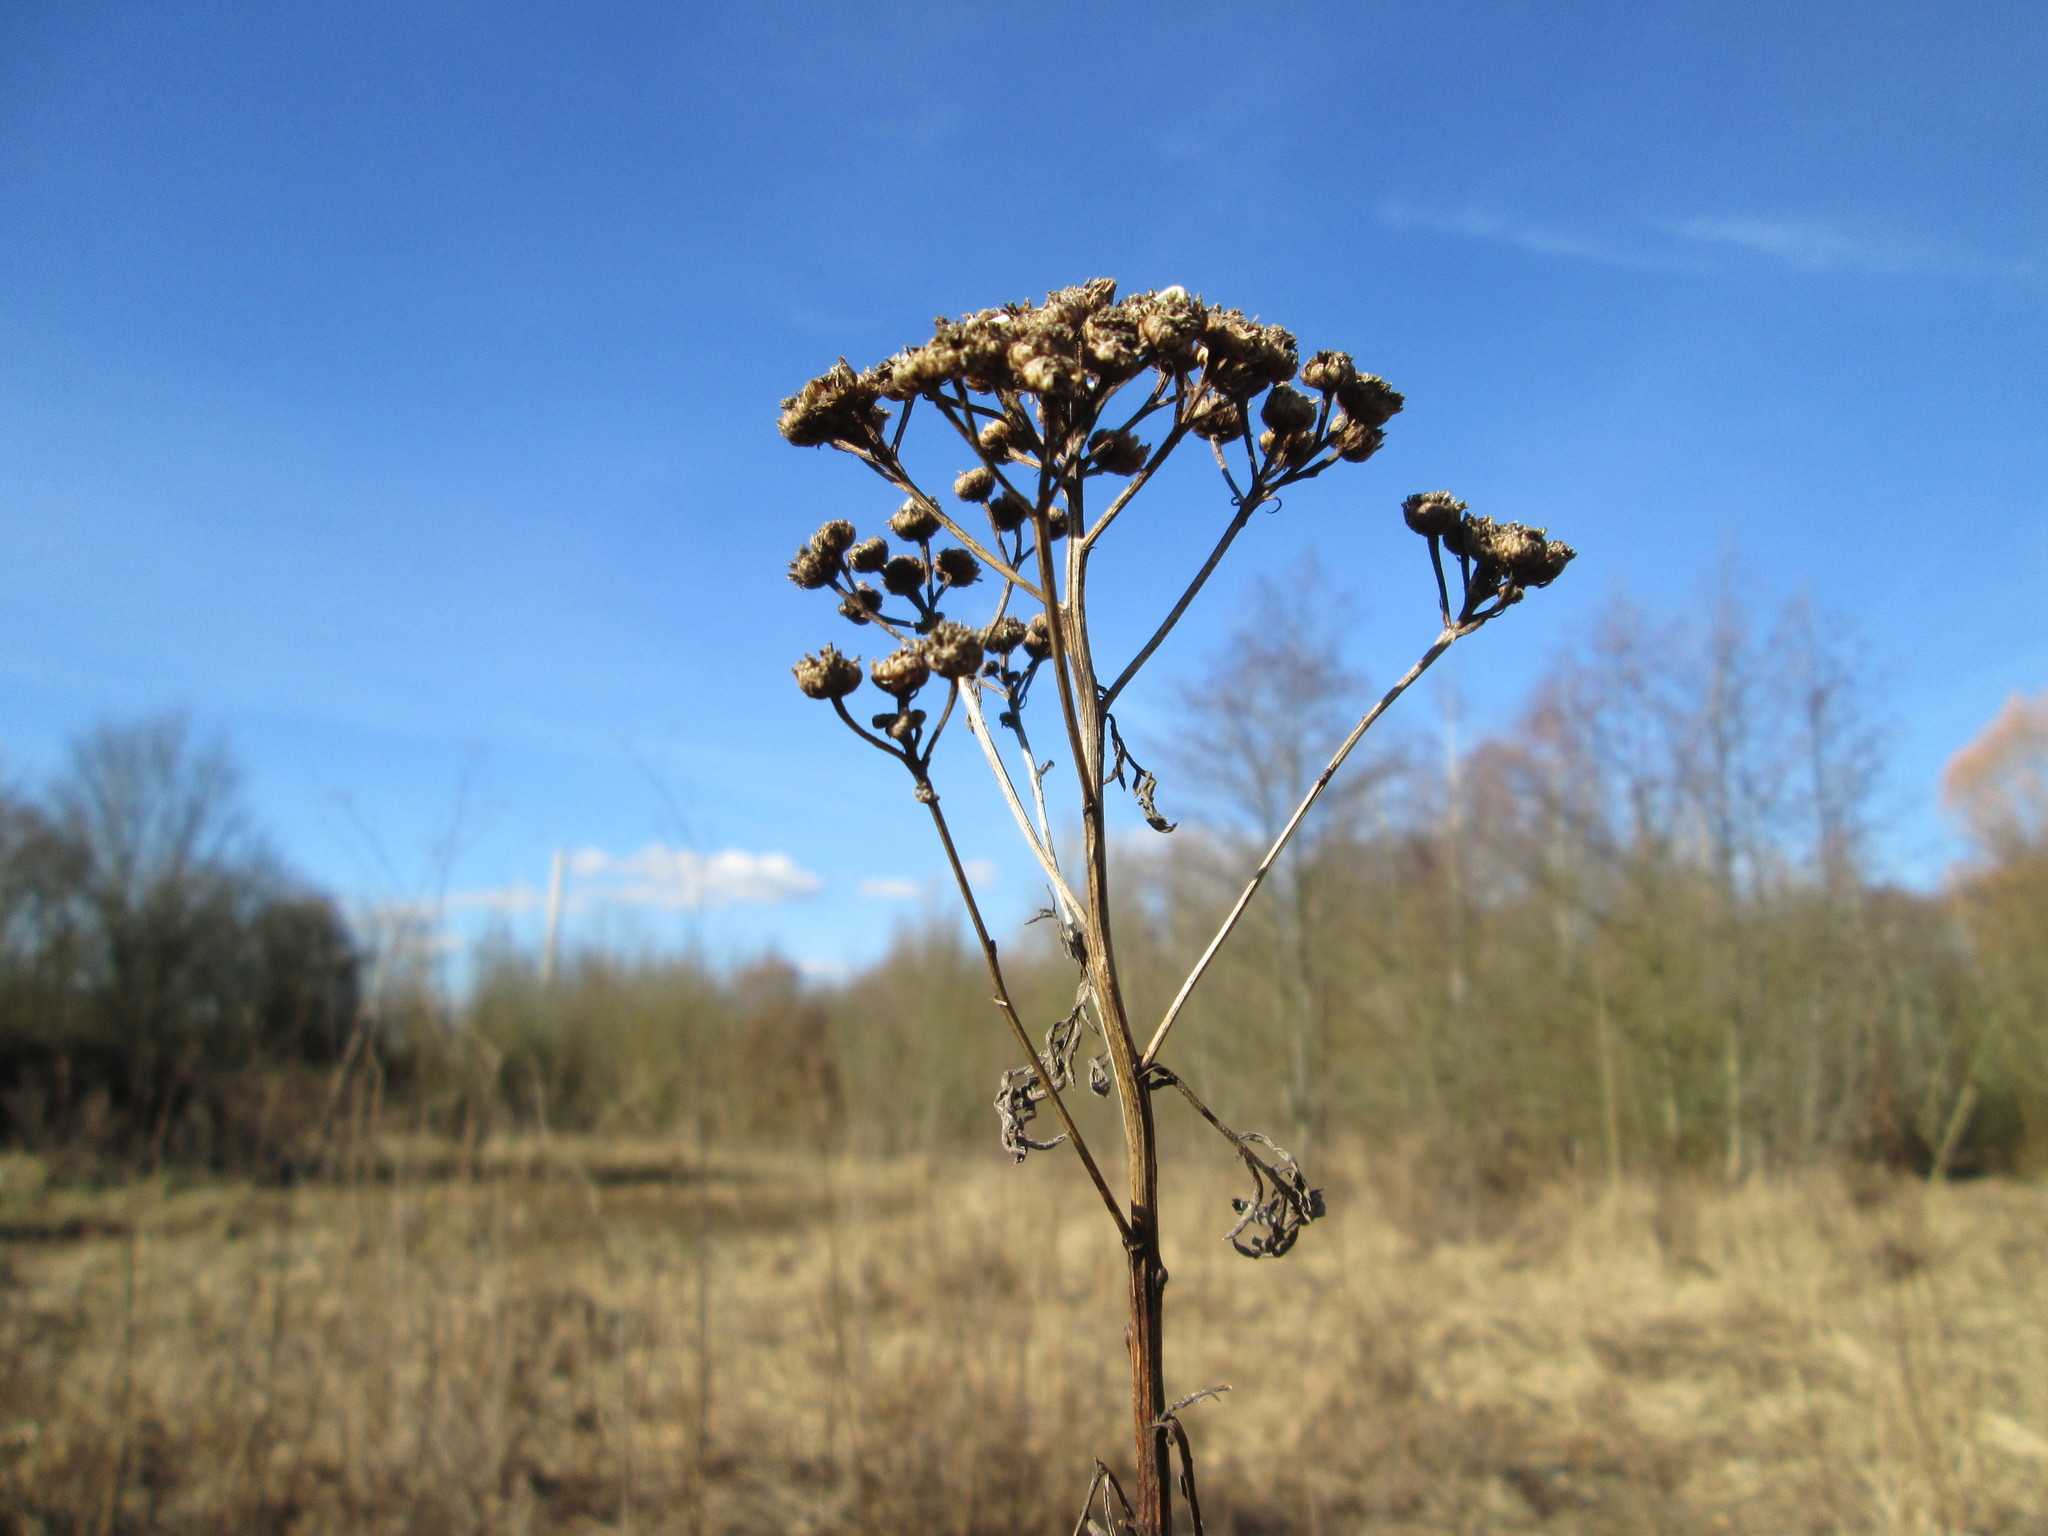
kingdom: Plantae
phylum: Tracheophyta
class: Magnoliopsida
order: Asterales
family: Asteraceae
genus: Tanacetum
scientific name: Tanacetum vulgare
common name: Common tansy
